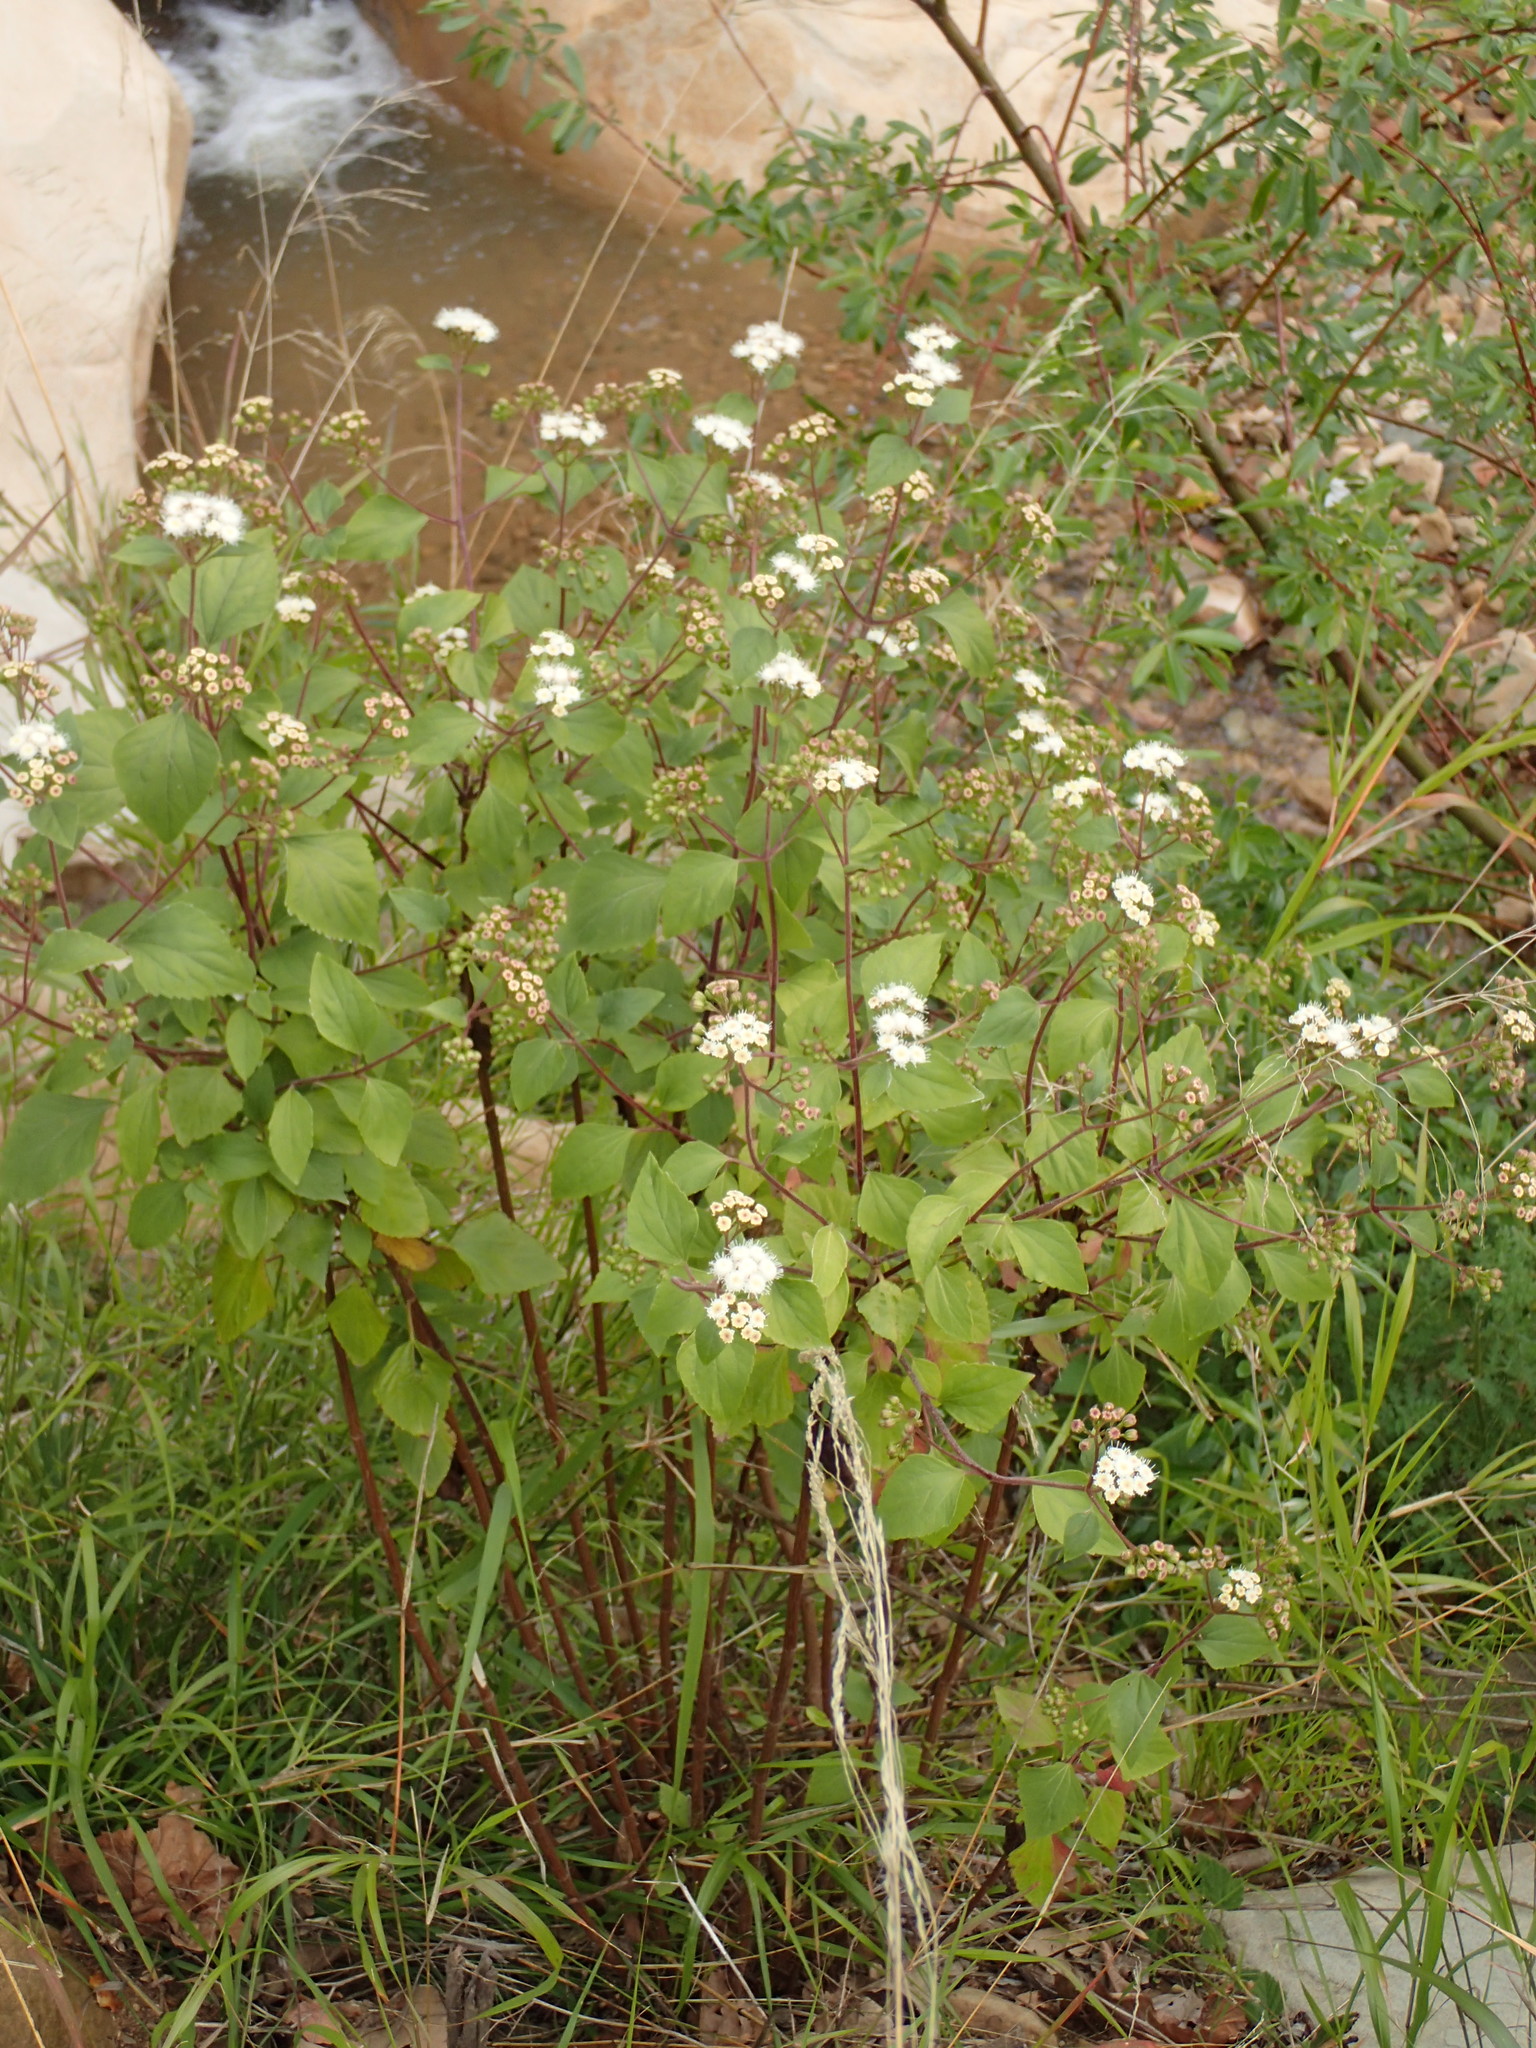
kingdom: Plantae
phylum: Tracheophyta
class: Magnoliopsida
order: Asterales
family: Asteraceae
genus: Ageratina
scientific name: Ageratina adenophora
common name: Sticky snakeroot
